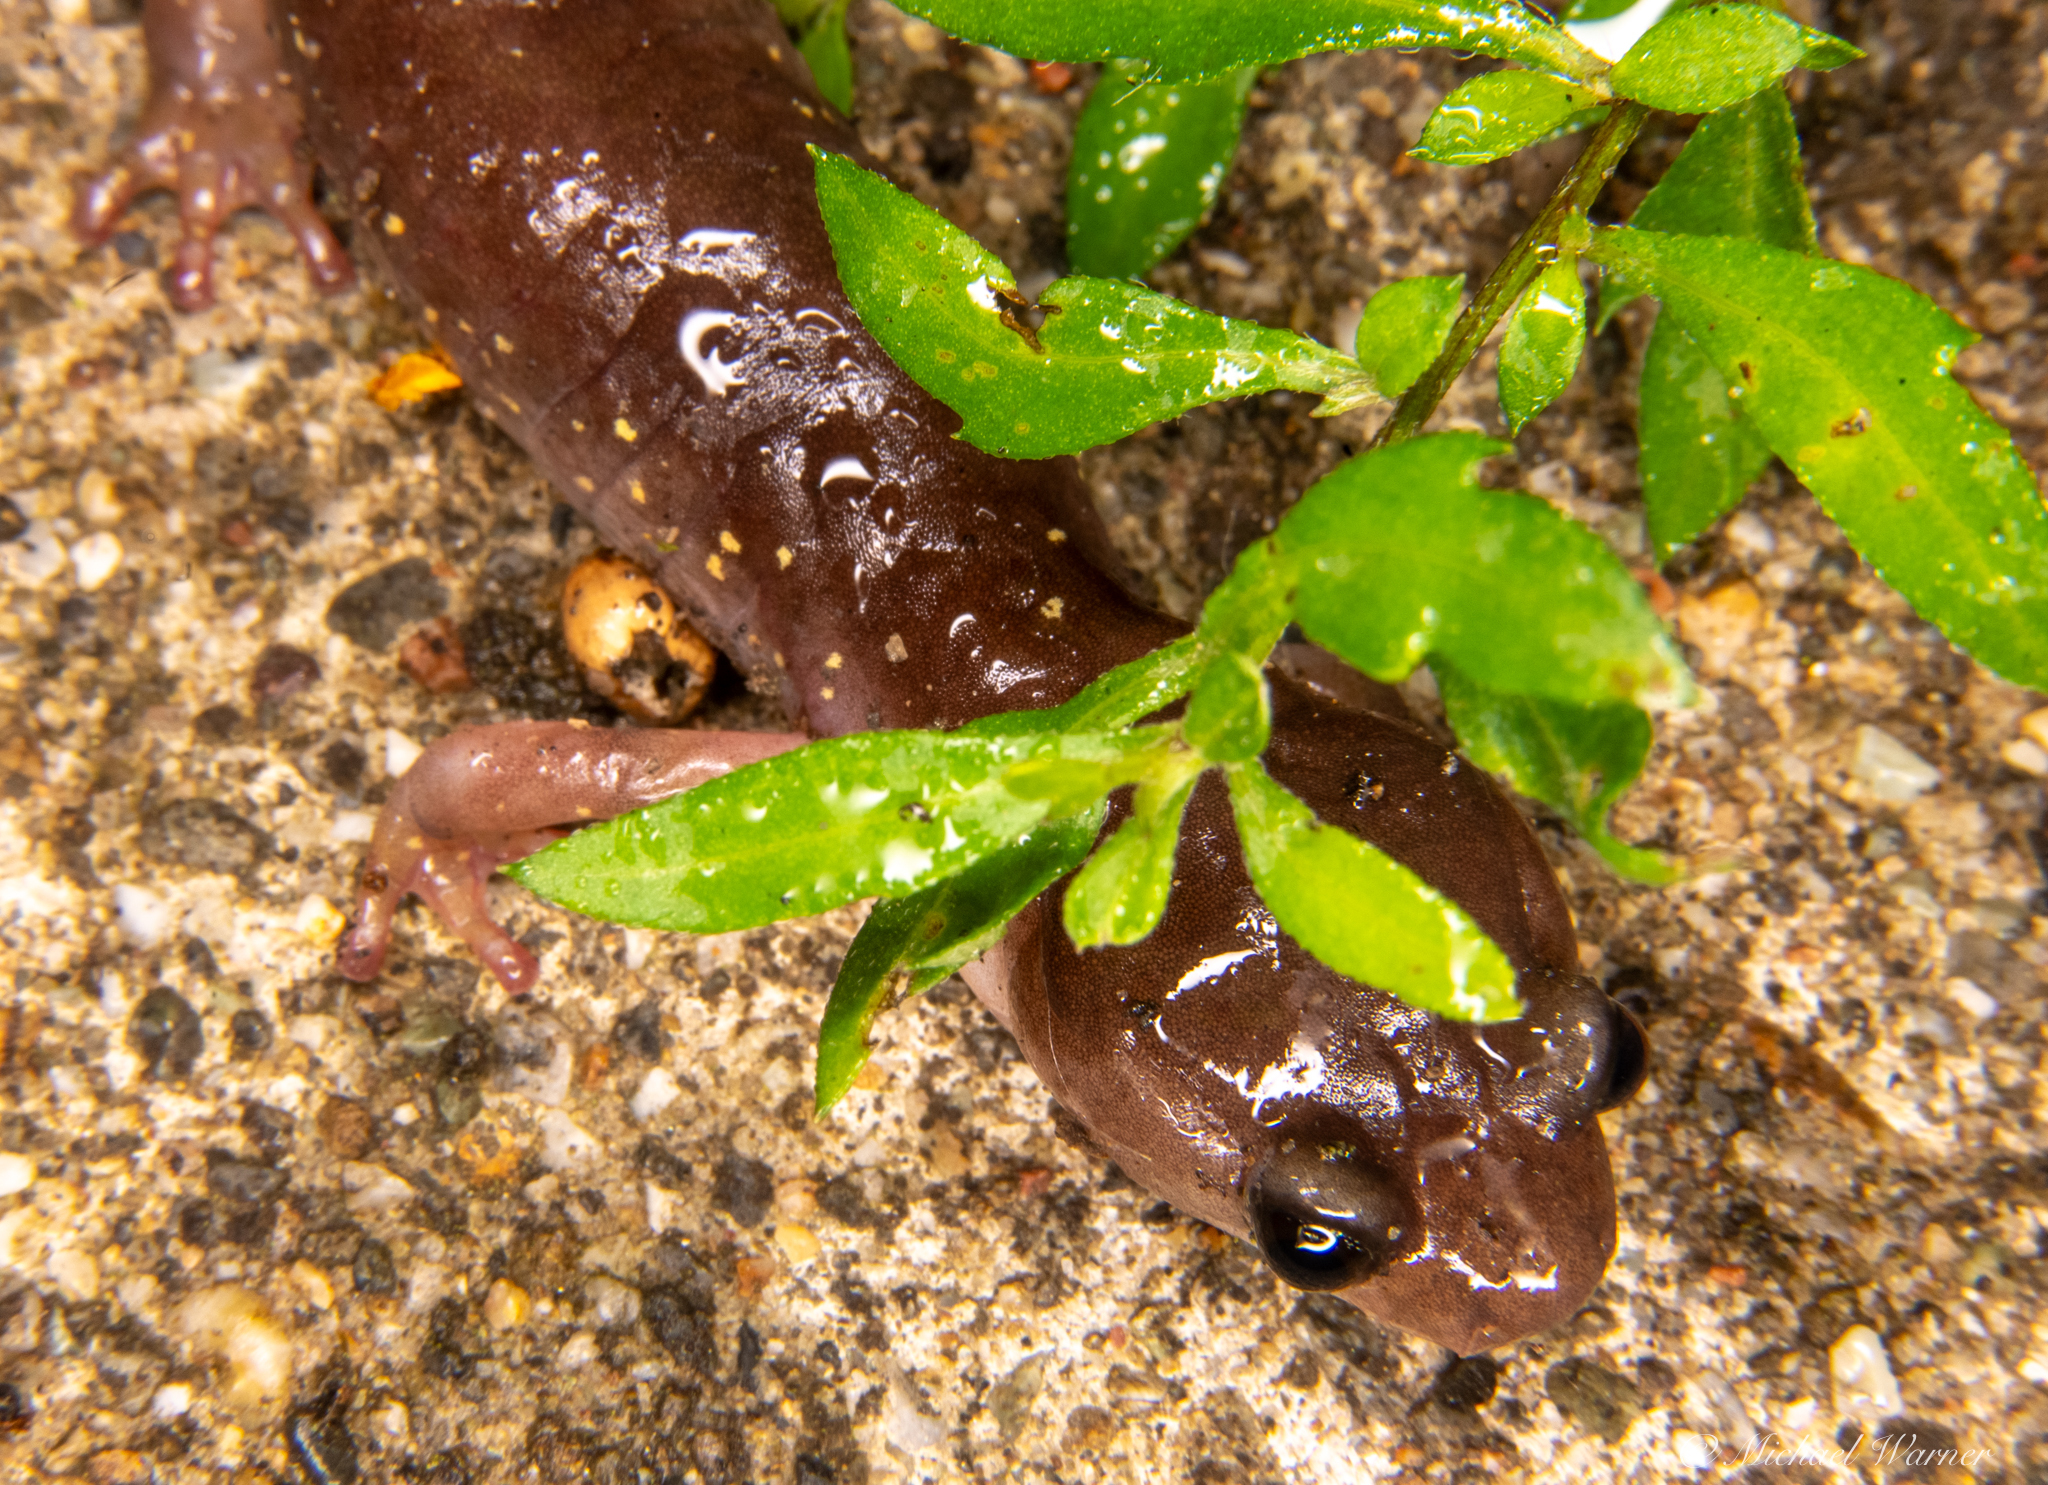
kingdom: Animalia
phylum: Chordata
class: Amphibia
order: Caudata
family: Plethodontidae
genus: Aneides
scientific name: Aneides lugubris
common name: Arboreal salamander
